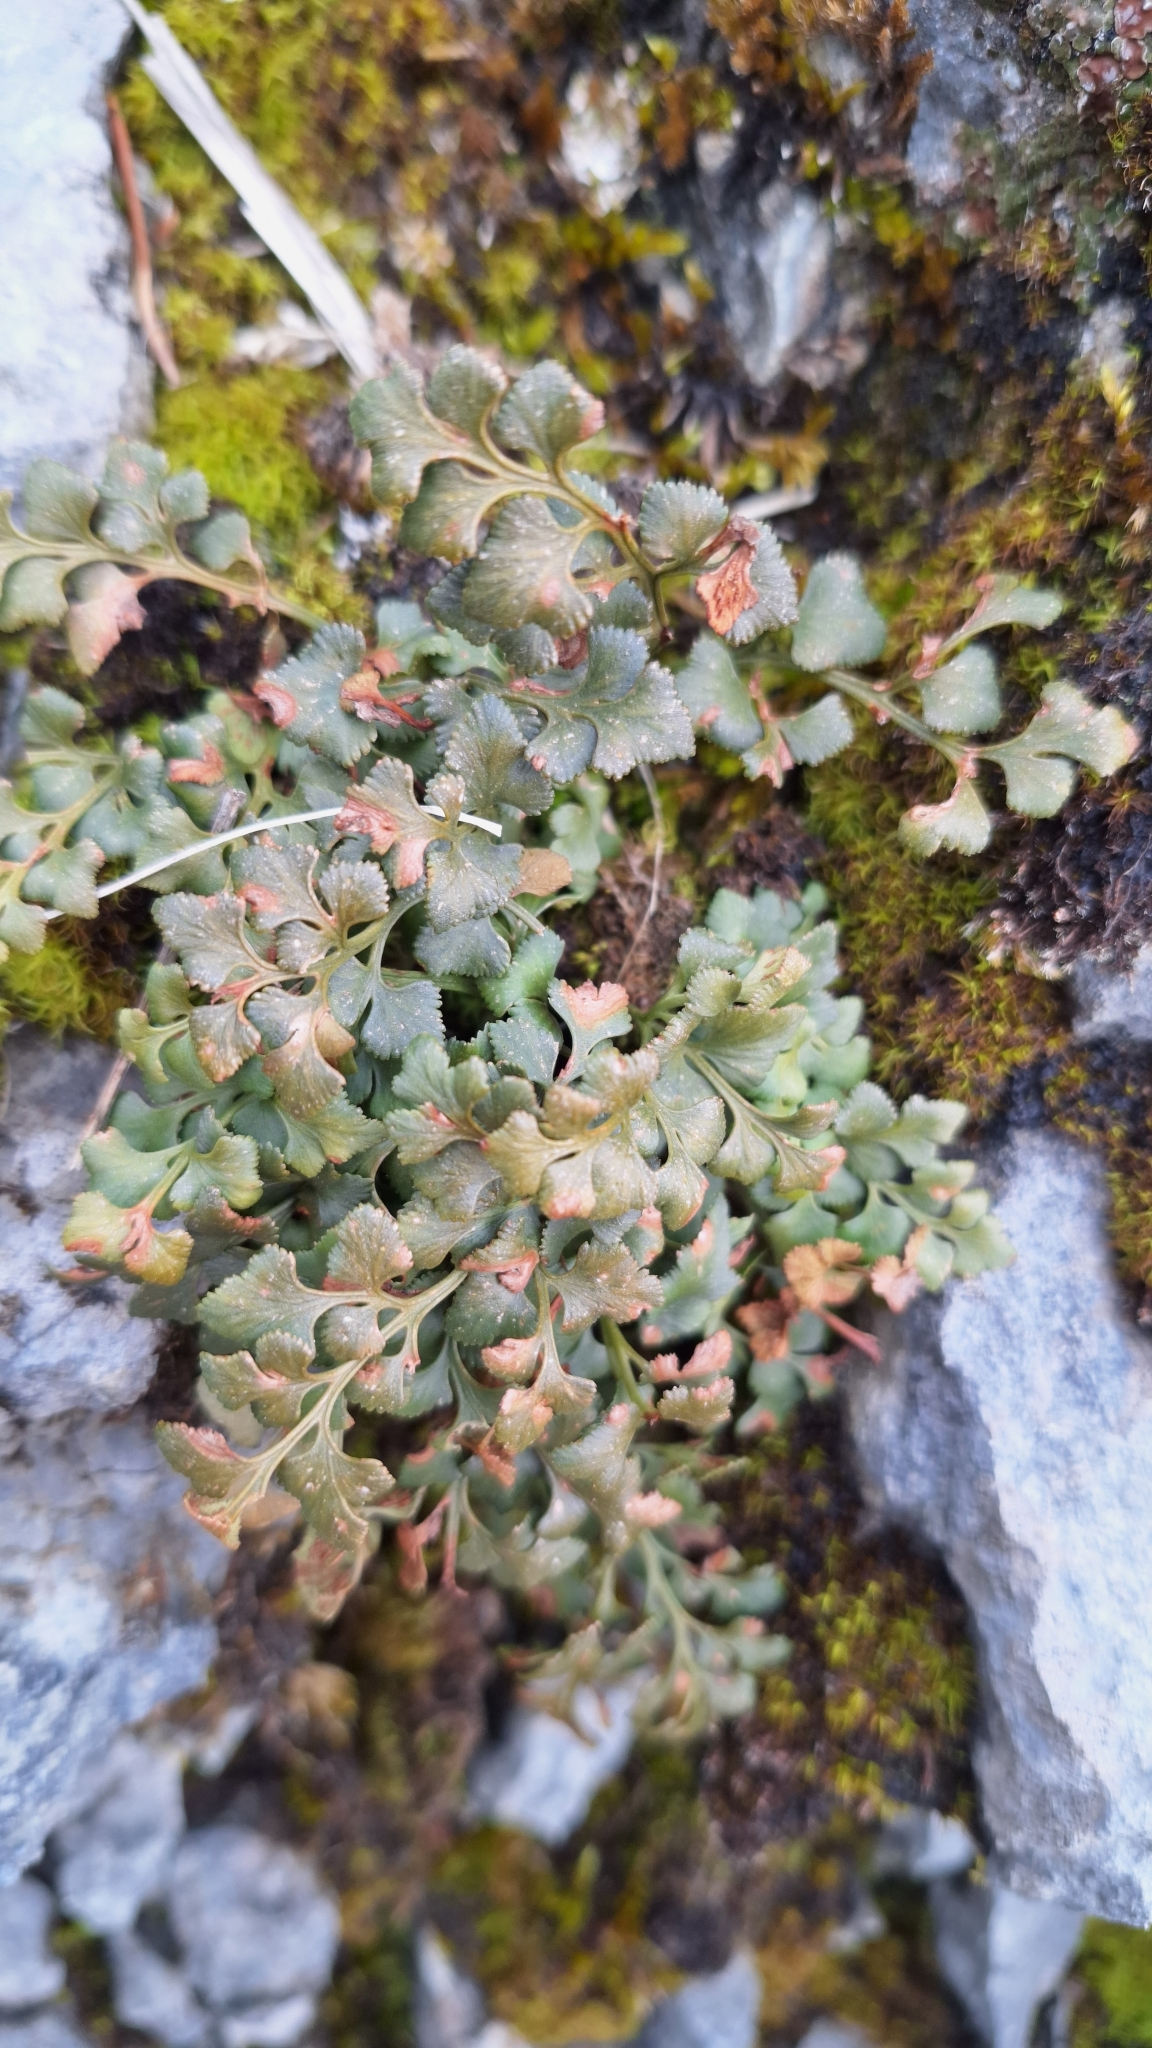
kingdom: Plantae
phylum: Tracheophyta
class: Polypodiopsida
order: Polypodiales
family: Aspleniaceae
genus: Asplenium
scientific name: Asplenium ruta-muraria
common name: Wall-rue
